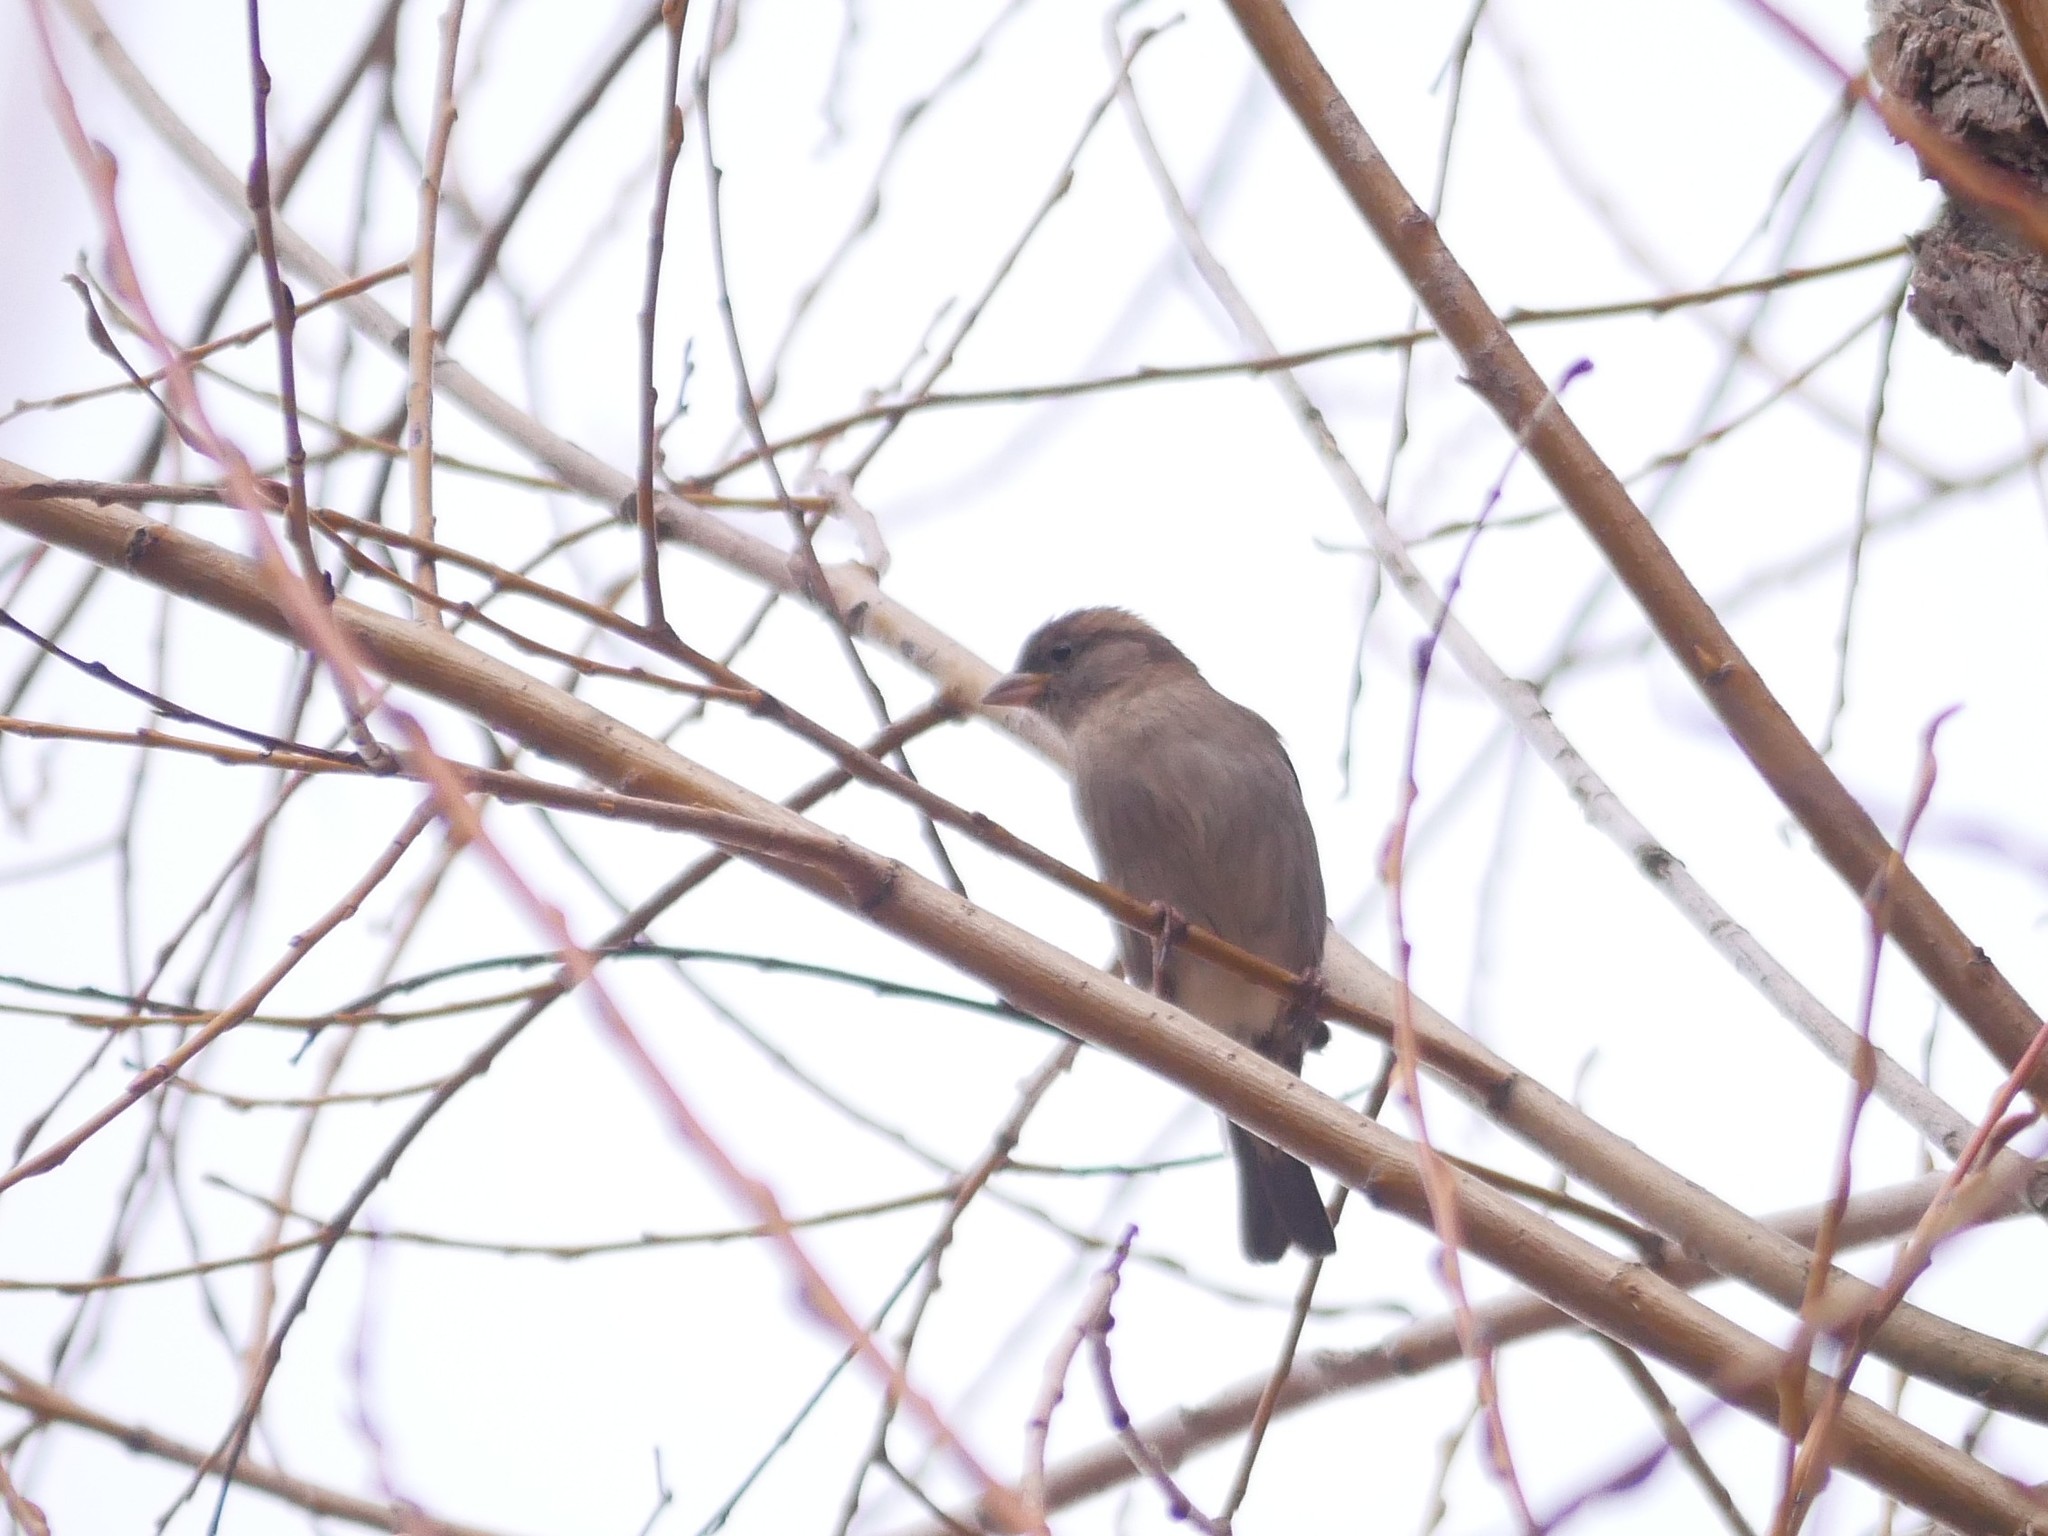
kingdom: Animalia
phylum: Chordata
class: Aves
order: Passeriformes
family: Passeridae
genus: Passer
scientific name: Passer domesticus
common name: House sparrow
